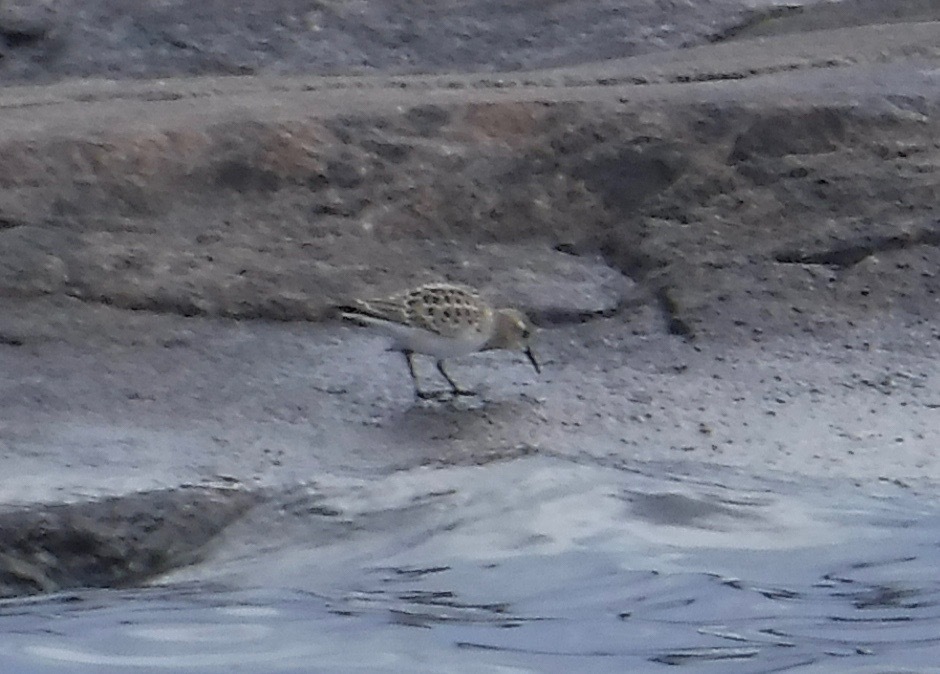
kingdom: Animalia
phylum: Chordata
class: Aves
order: Charadriiformes
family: Scolopacidae
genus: Calidris
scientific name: Calidris bairdii
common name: Baird's sandpiper
